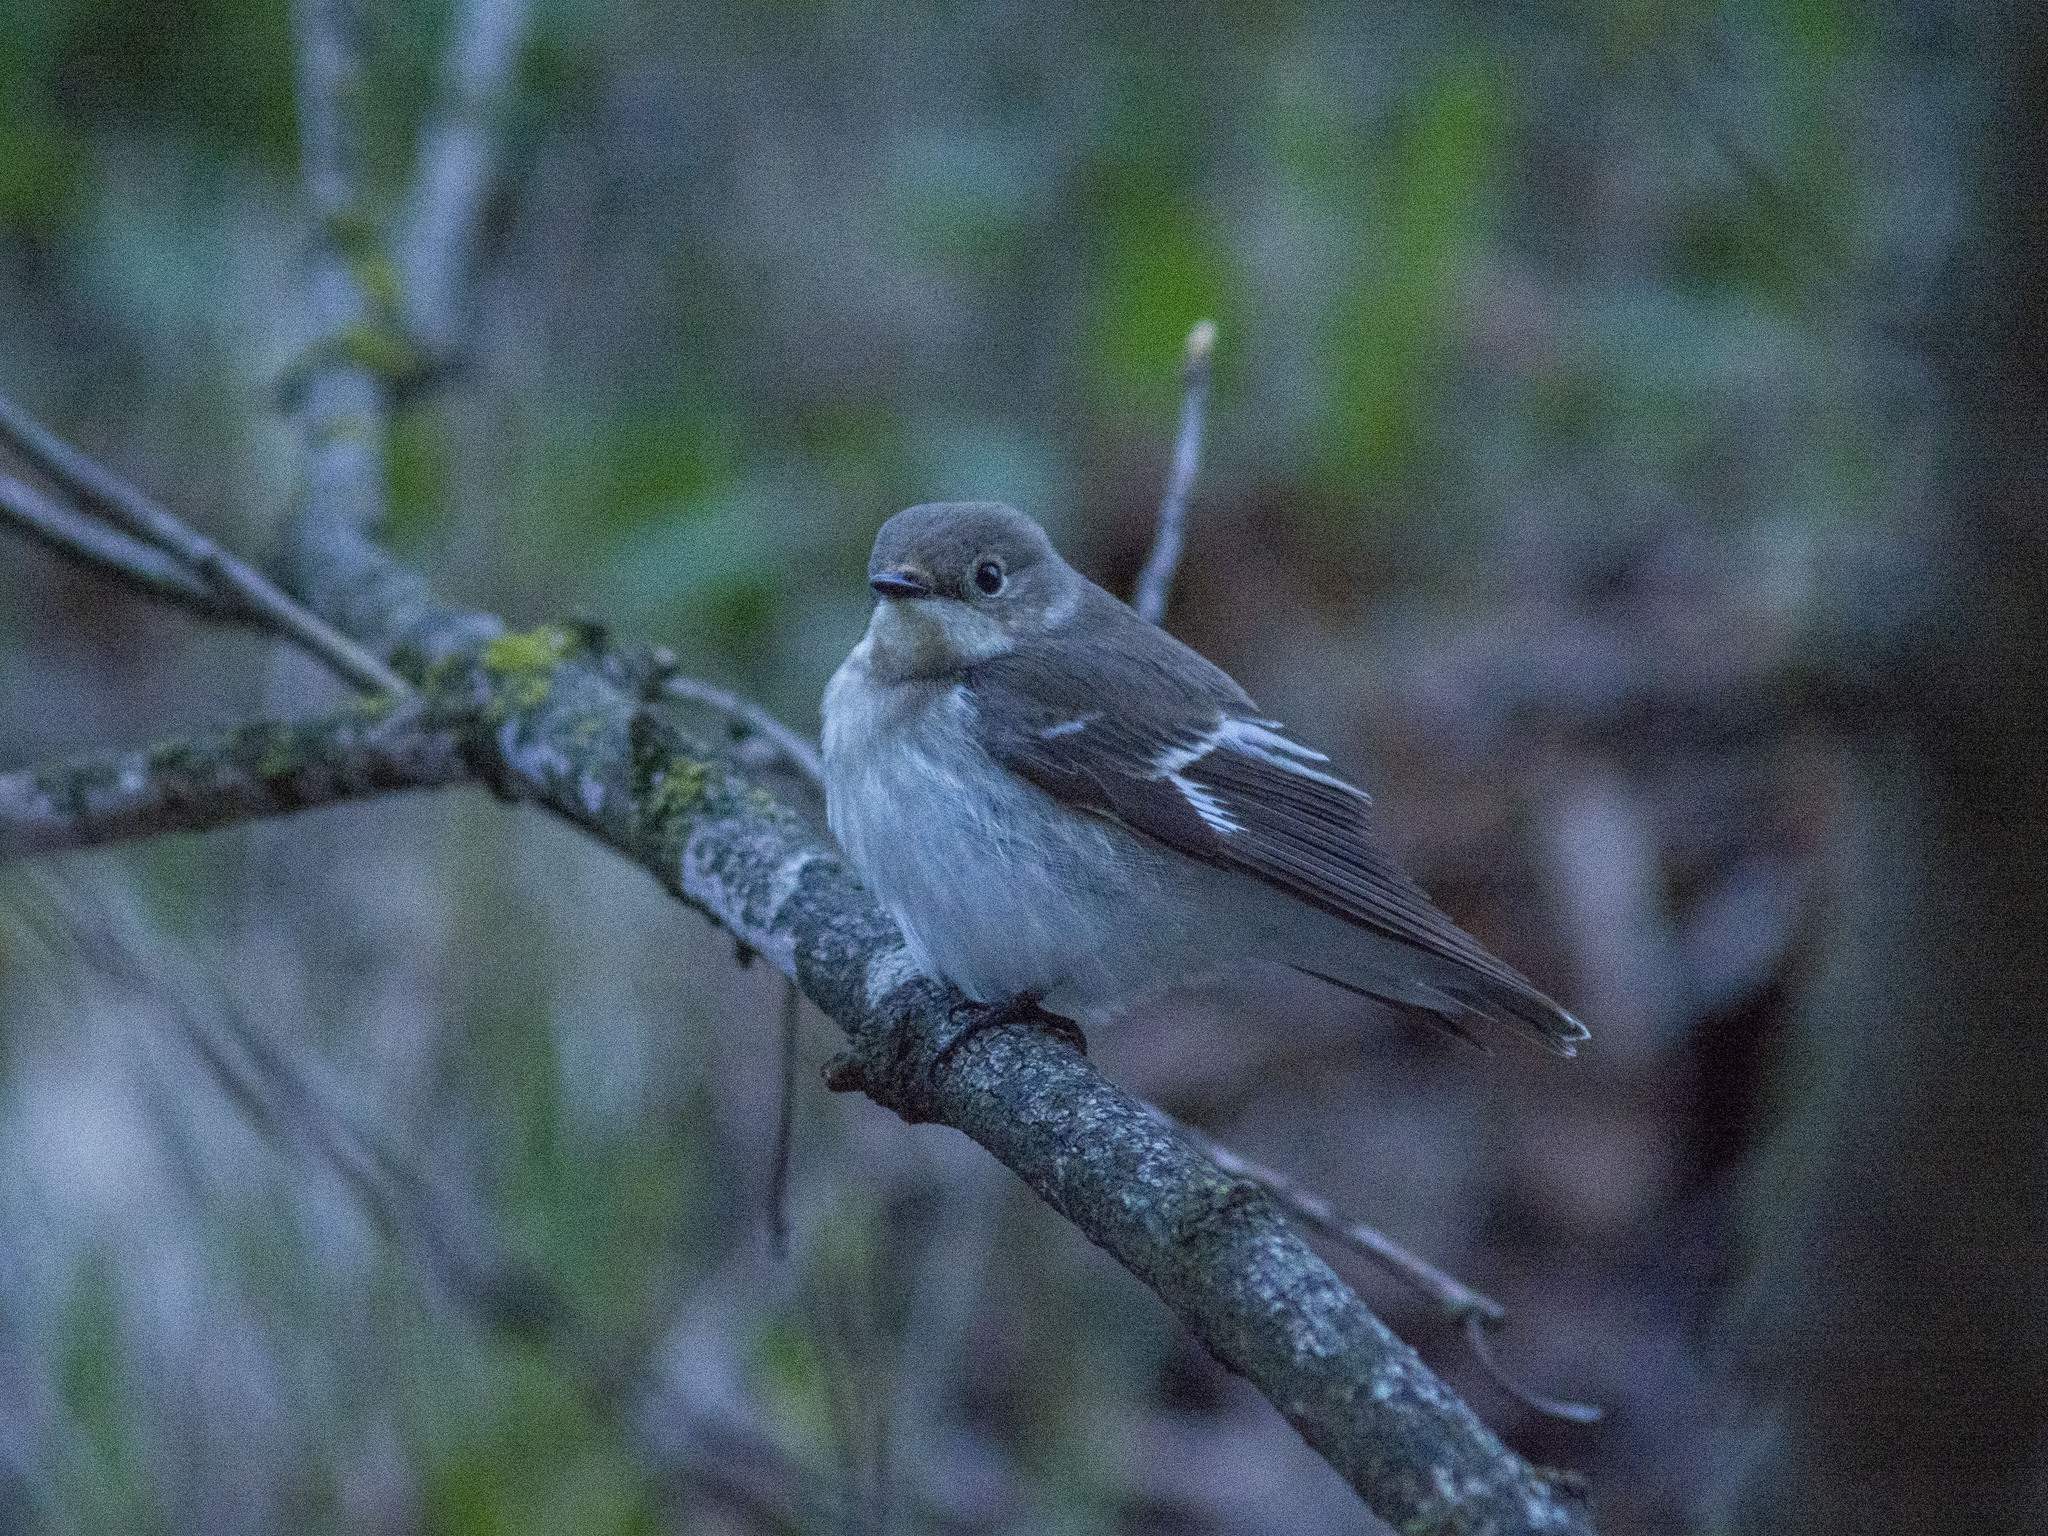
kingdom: Animalia
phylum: Chordata
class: Aves
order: Passeriformes
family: Muscicapidae
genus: Ficedula
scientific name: Ficedula semitorquata
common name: Semicollared flycatcher
